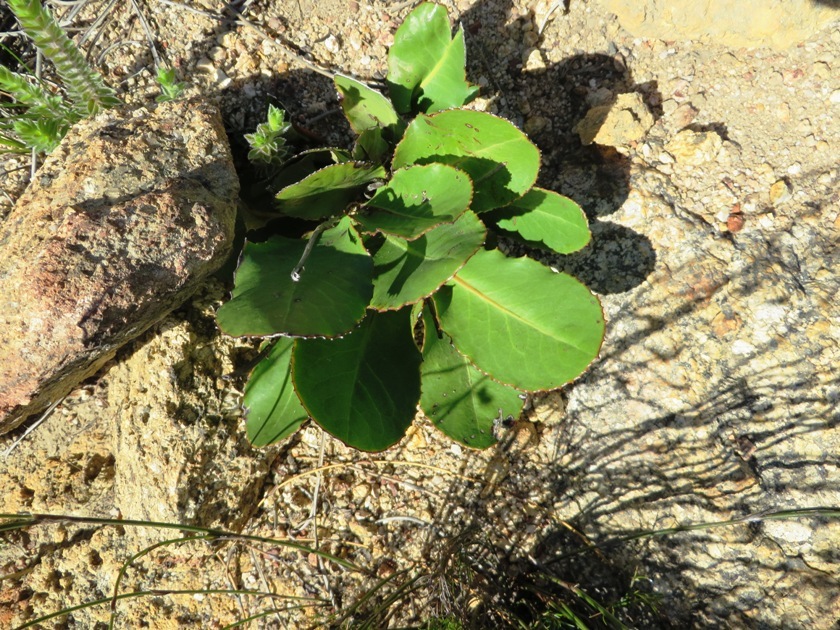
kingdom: Plantae
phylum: Tracheophyta
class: Magnoliopsida
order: Asterales
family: Asteraceae
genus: Gerbera
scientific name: Gerbera crocea
